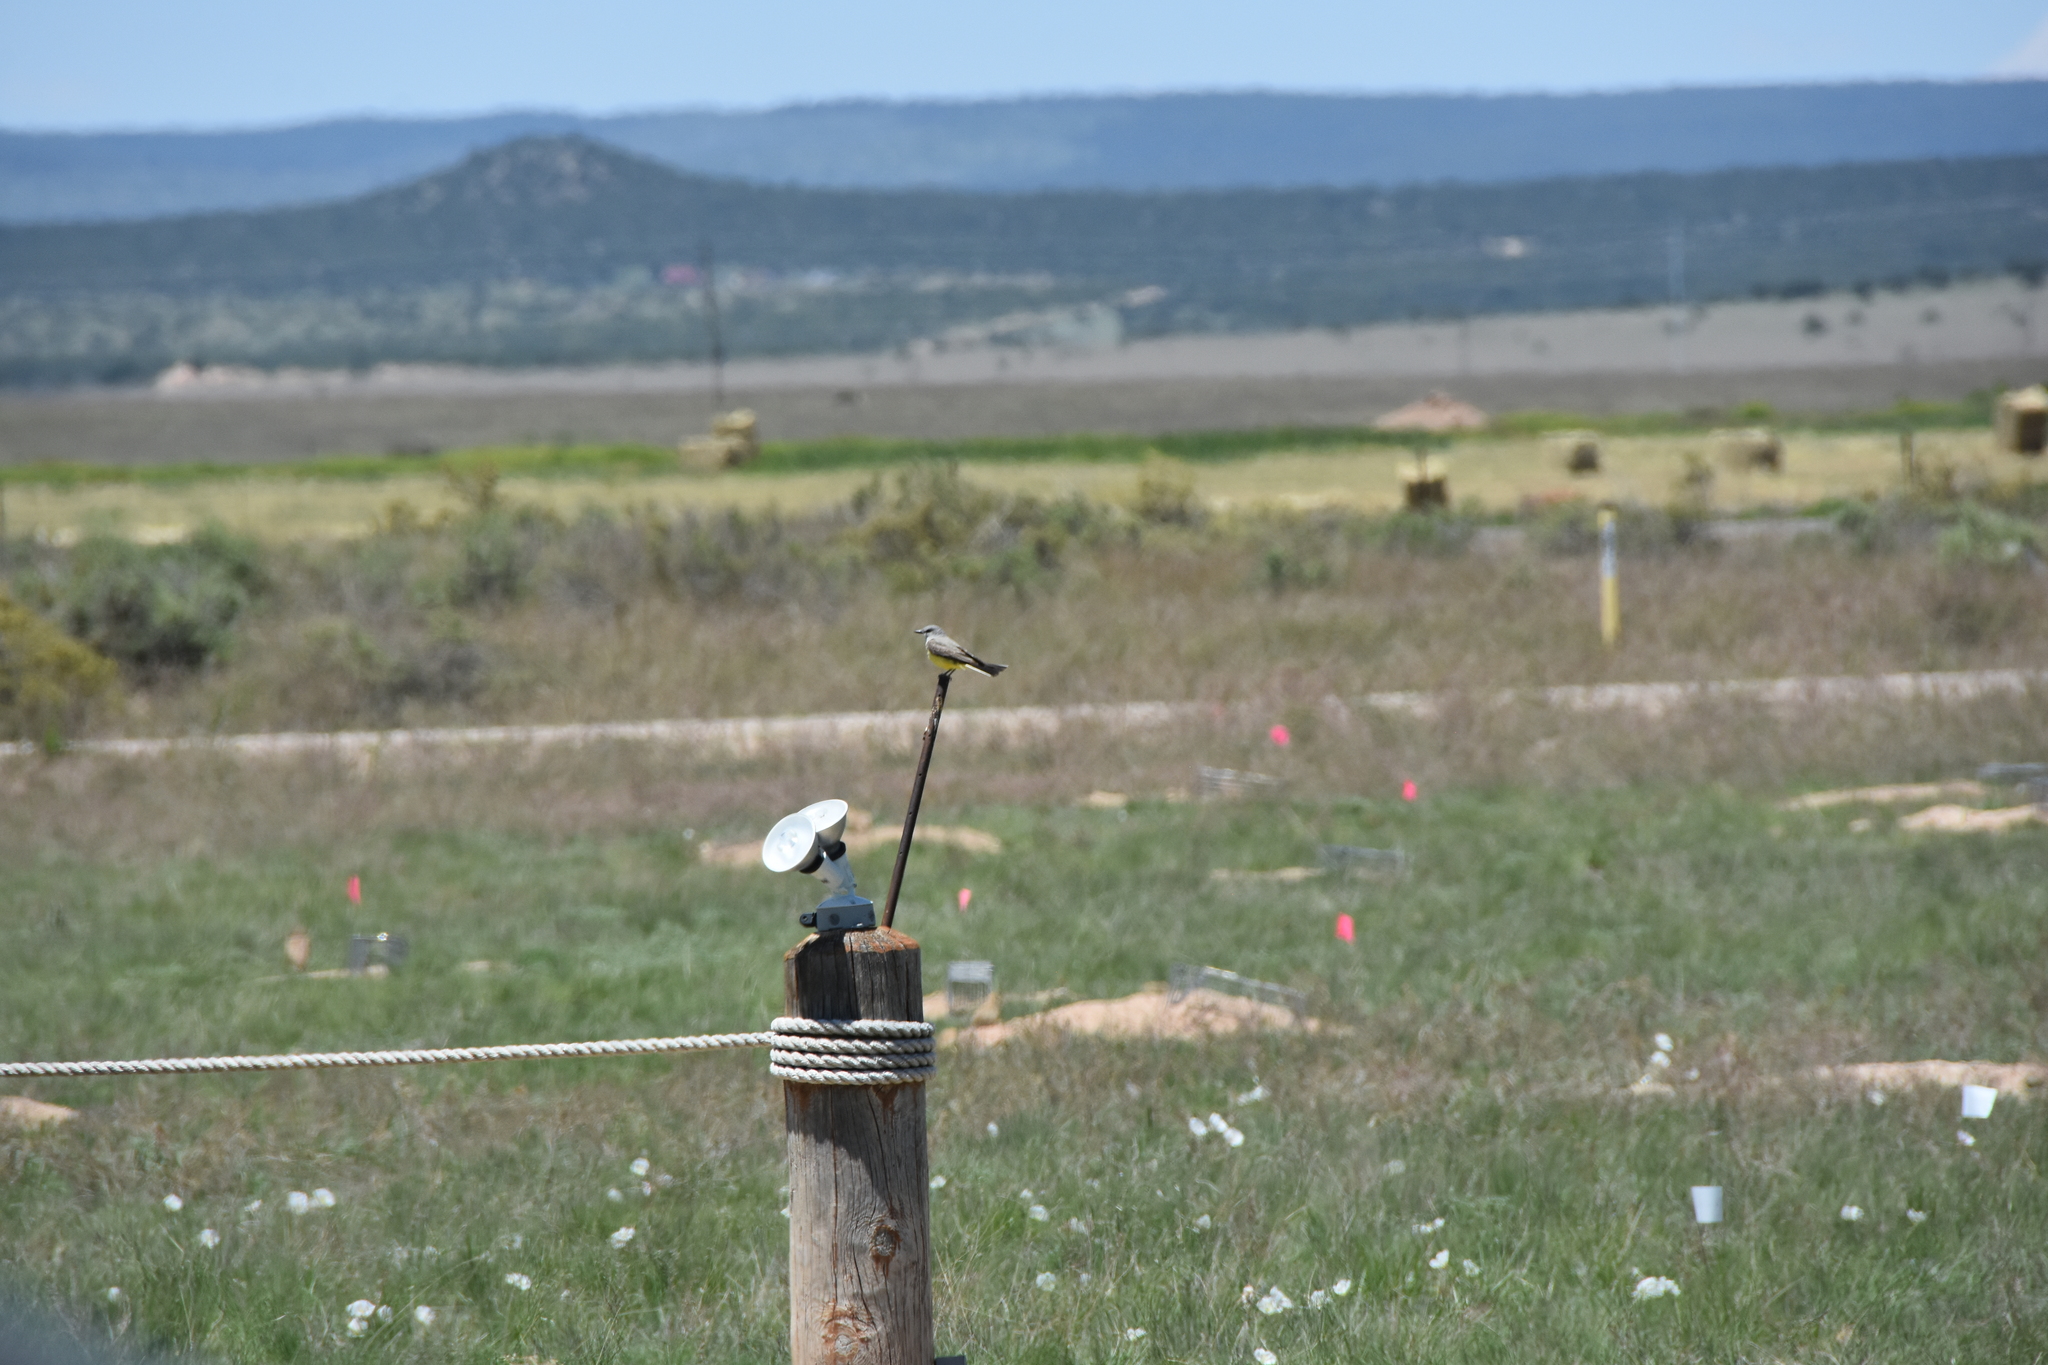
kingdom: Animalia
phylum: Chordata
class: Aves
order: Passeriformes
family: Tyrannidae
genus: Tyrannus
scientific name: Tyrannus verticalis
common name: Western kingbird
